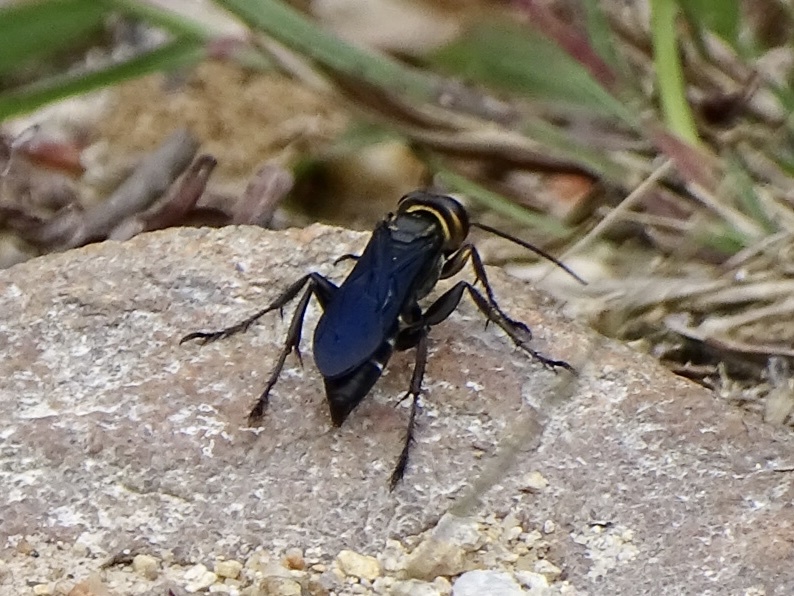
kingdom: Animalia
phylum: Arthropoda
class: Insecta
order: Hymenoptera
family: Crabronidae
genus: Liris
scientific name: Liris anthracinus
